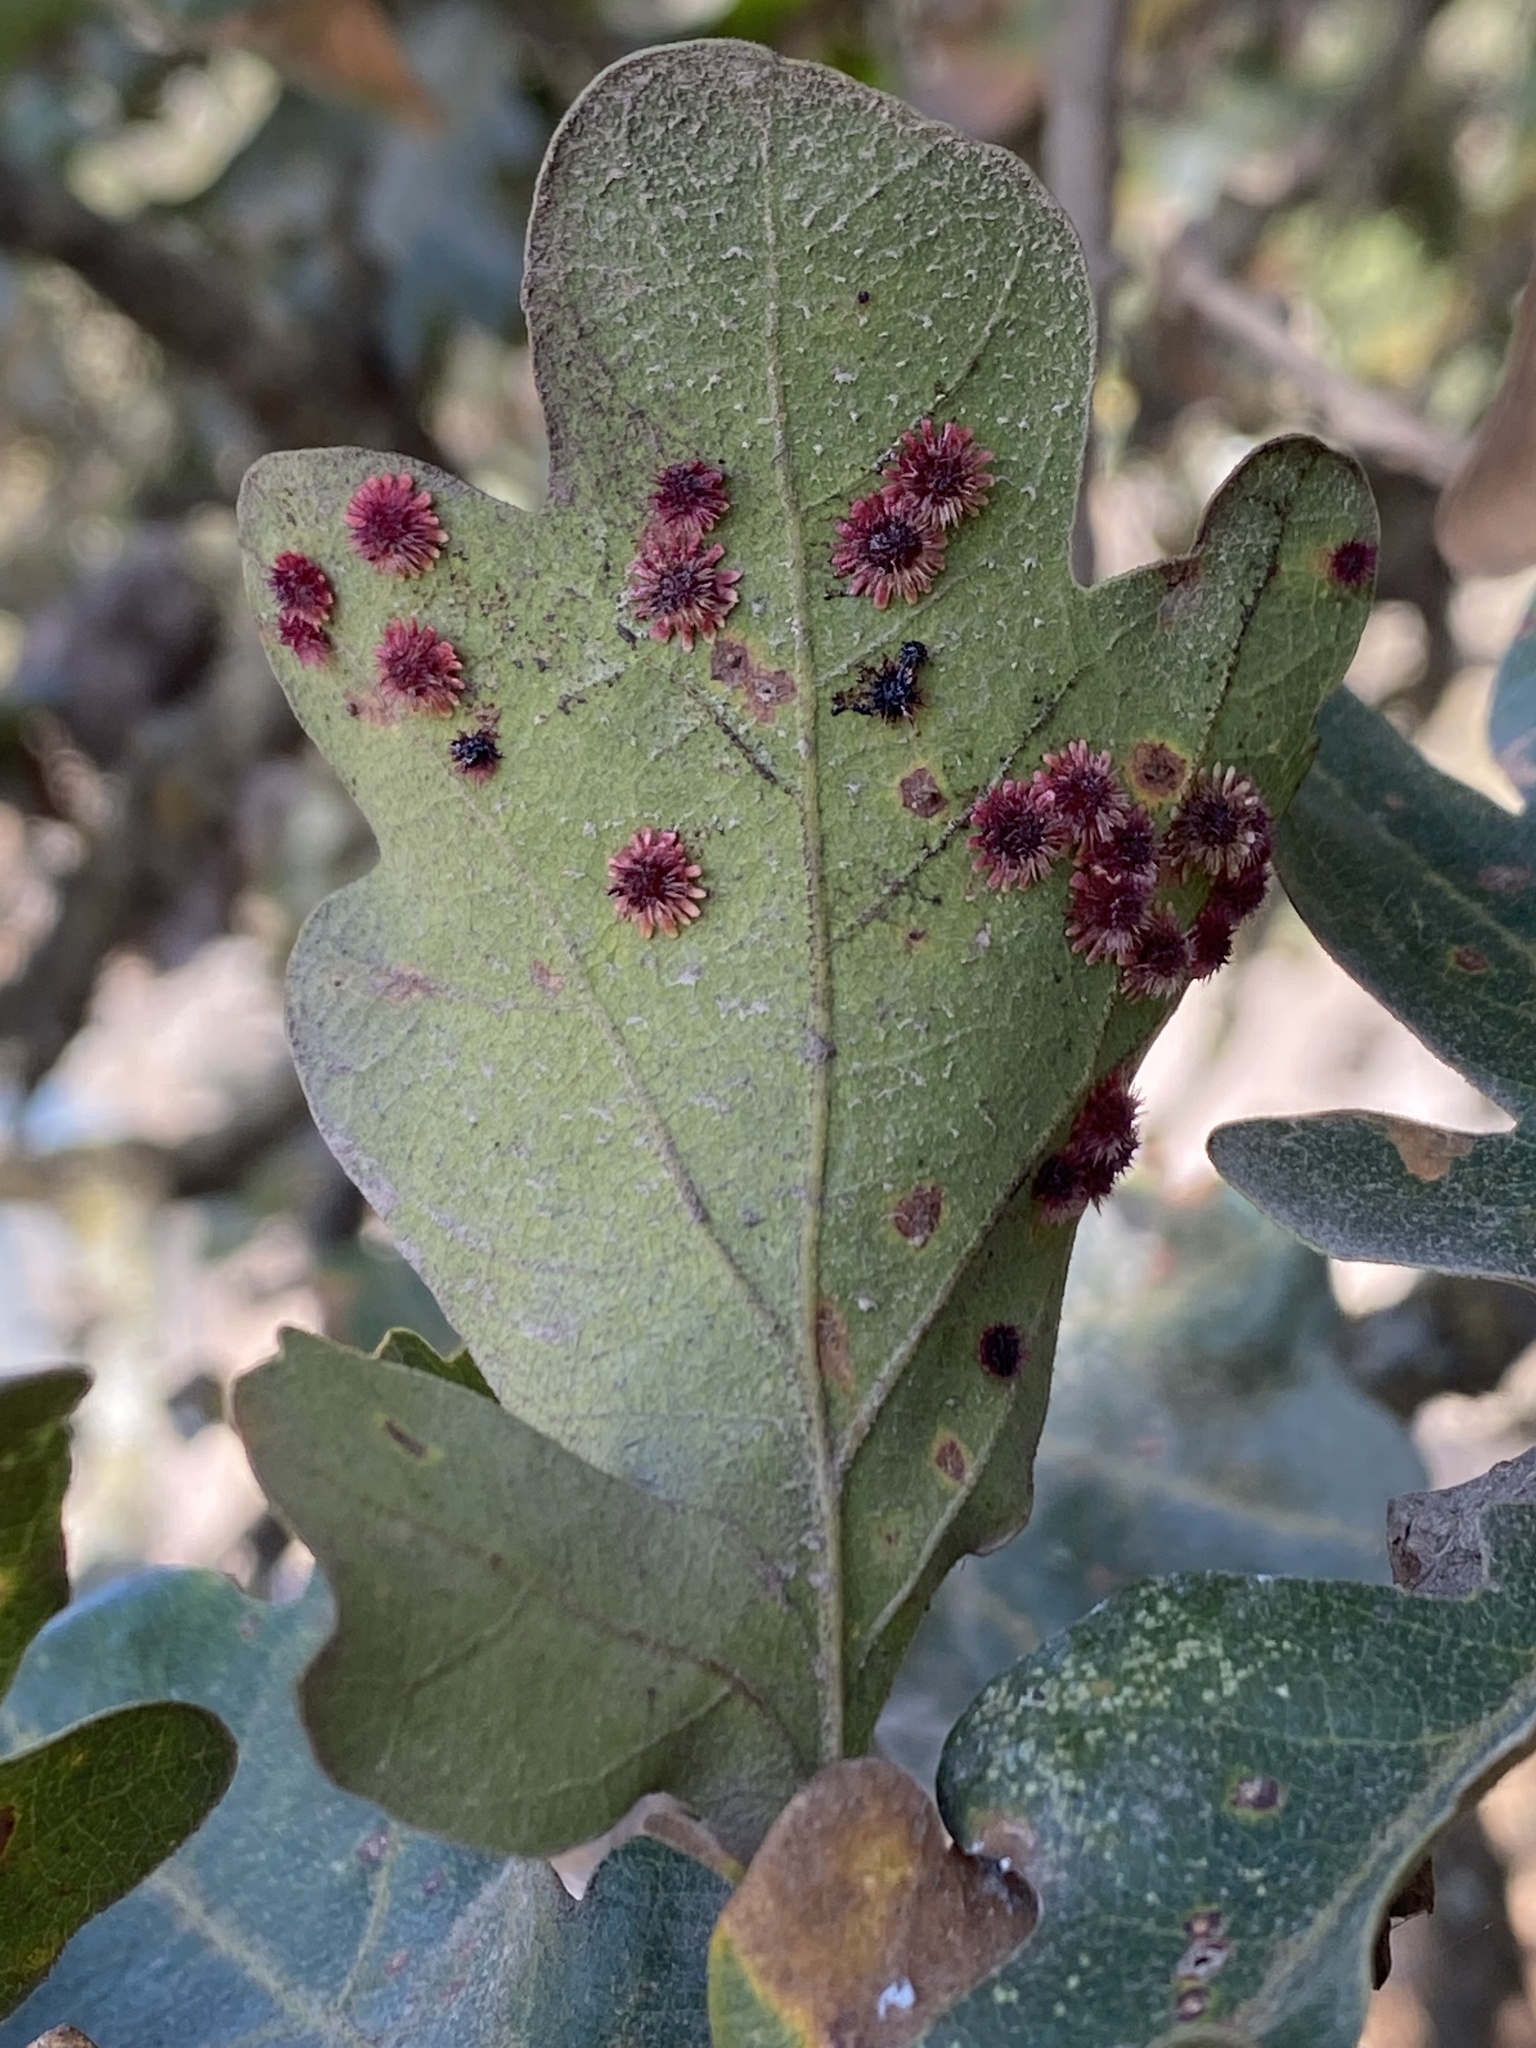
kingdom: Animalia
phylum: Arthropoda
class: Insecta
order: Hymenoptera
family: Cynipidae
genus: Andricus
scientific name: Andricus
